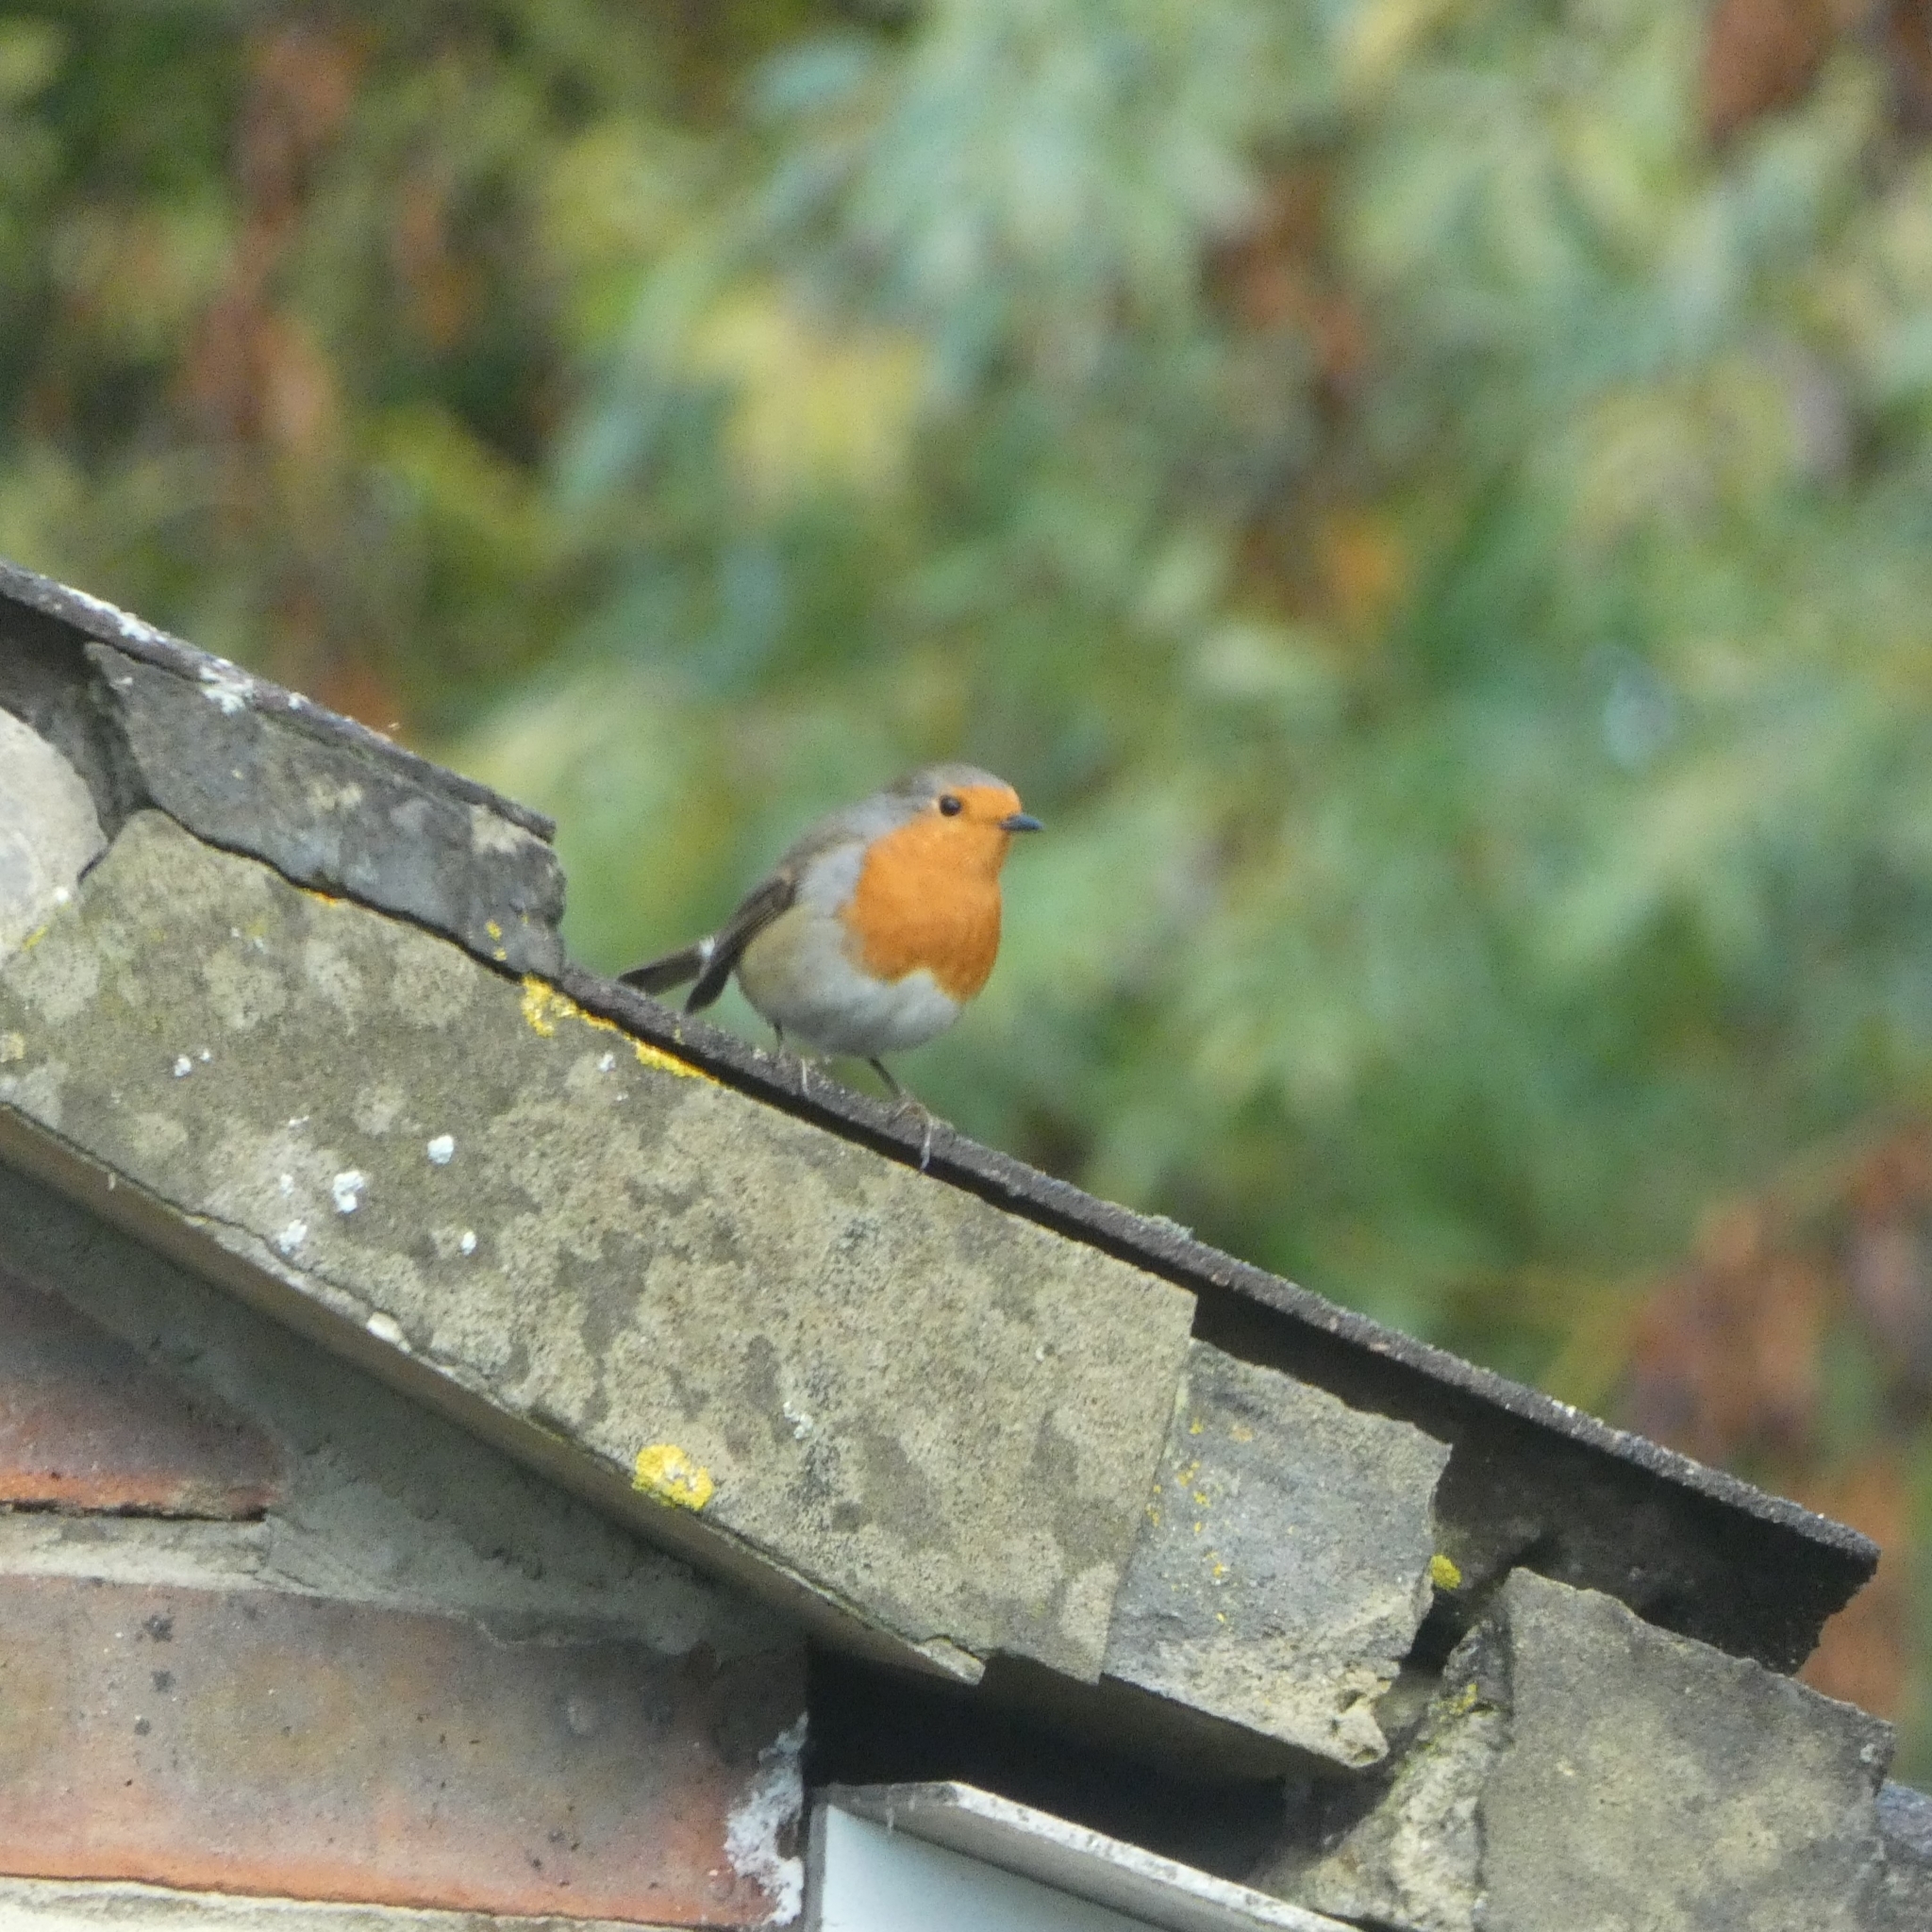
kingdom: Animalia
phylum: Chordata
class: Aves
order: Passeriformes
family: Muscicapidae
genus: Erithacus
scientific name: Erithacus rubecula
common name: European robin
